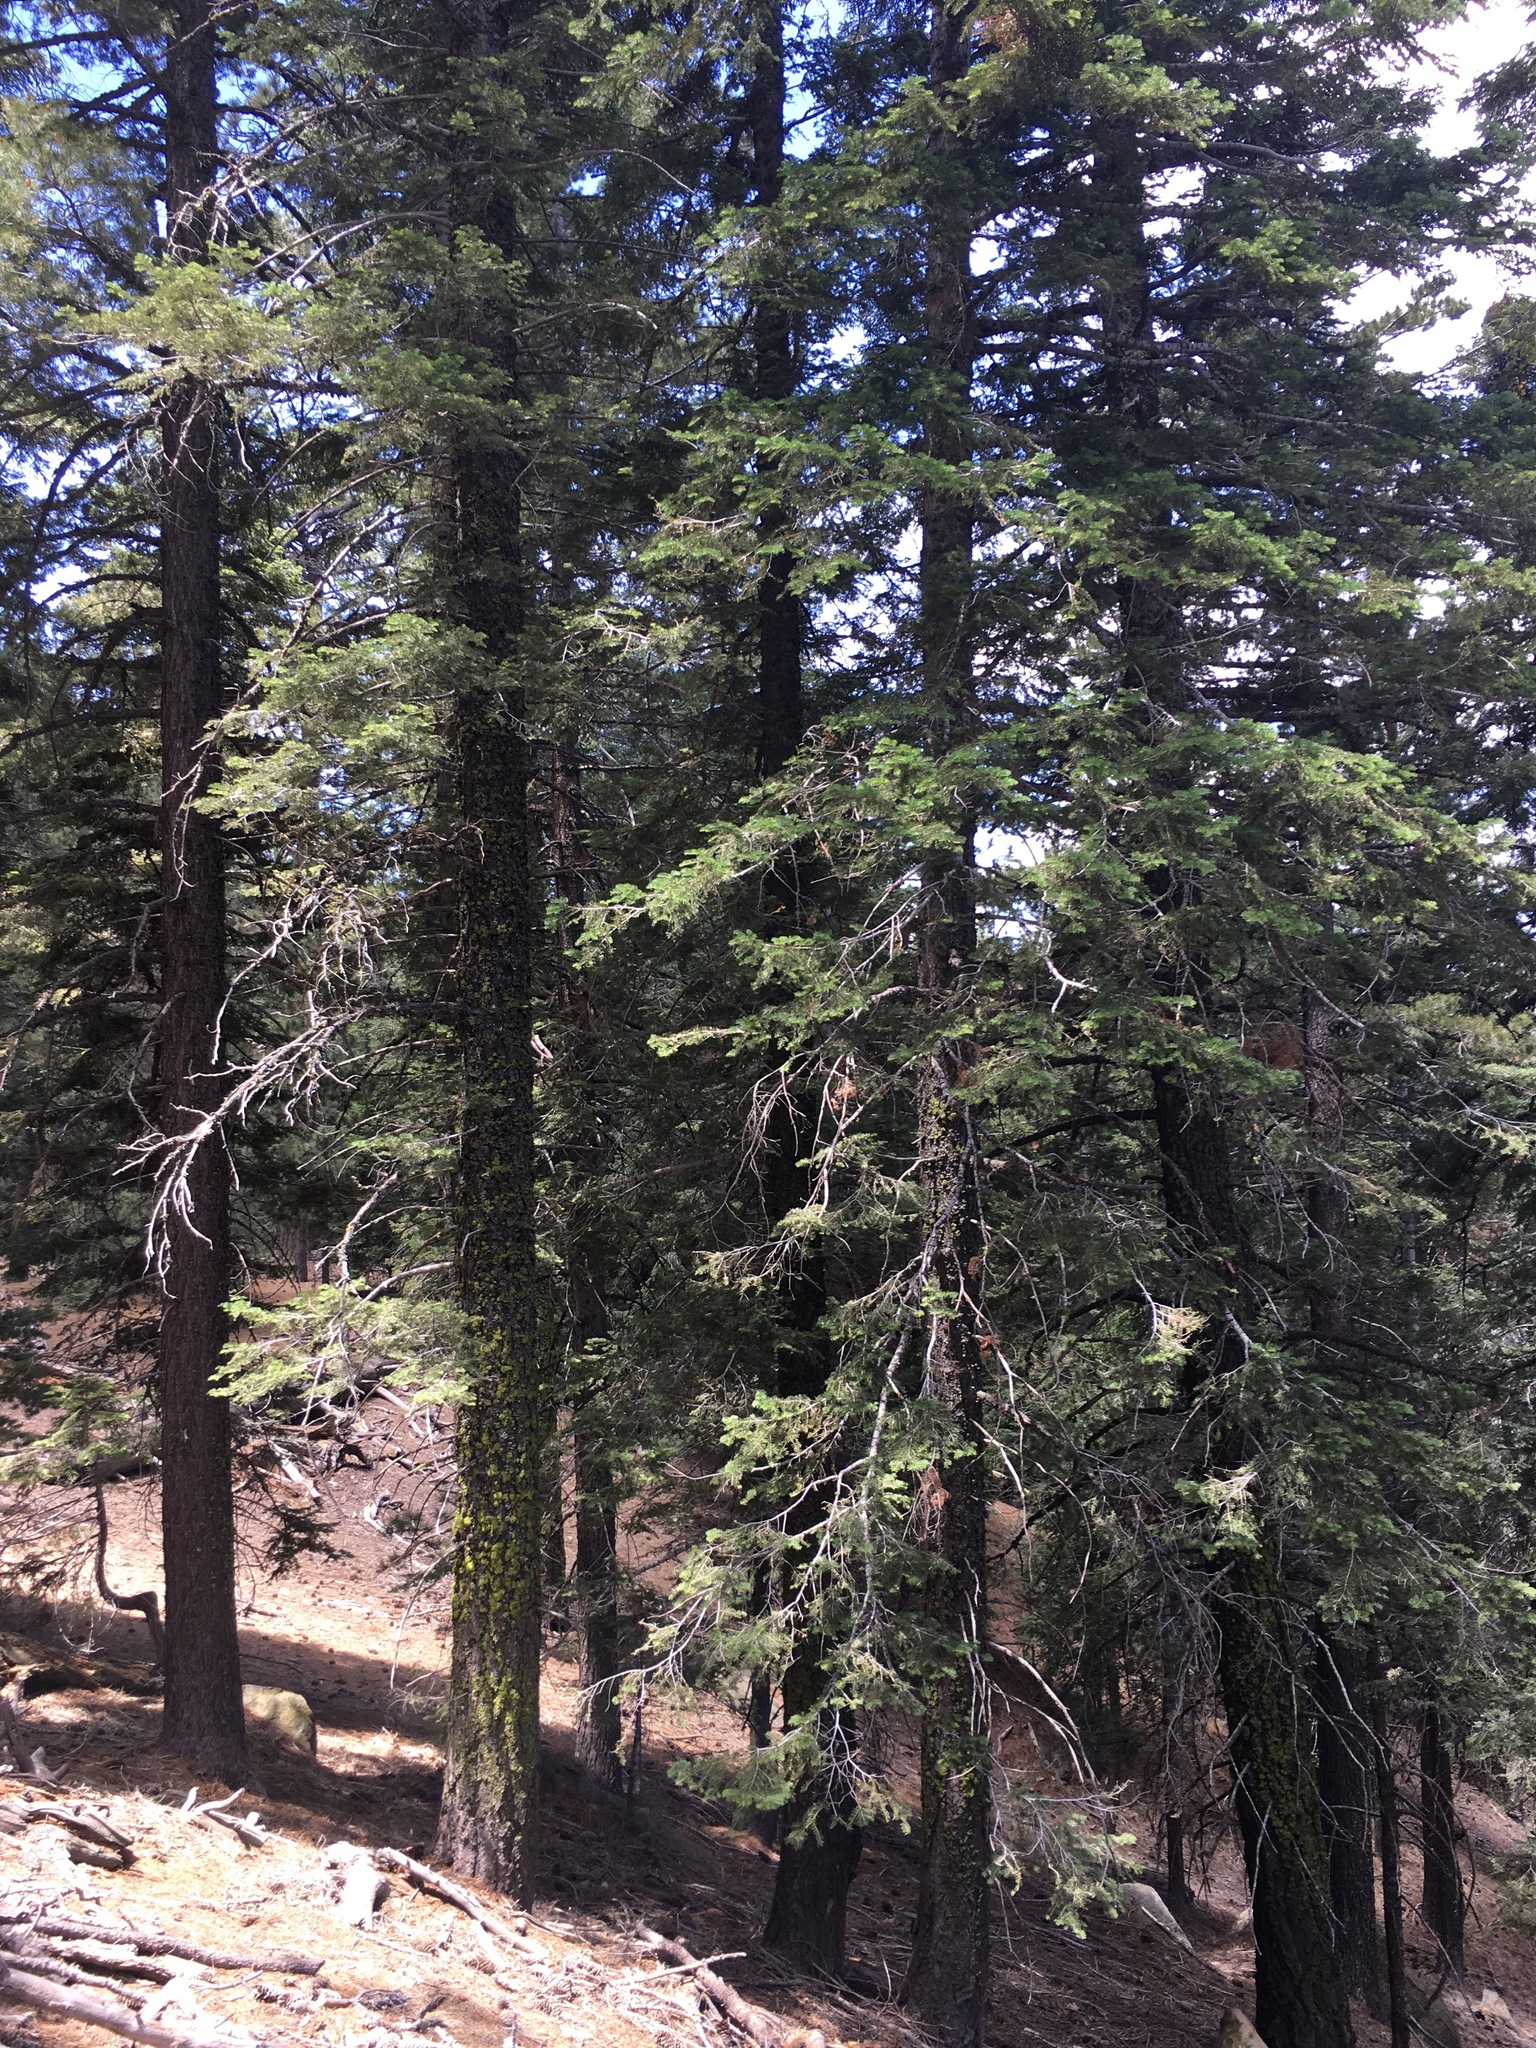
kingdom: Plantae
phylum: Tracheophyta
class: Pinopsida
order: Pinales
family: Pinaceae
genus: Abies
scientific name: Abies concolor
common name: Colorado fir
